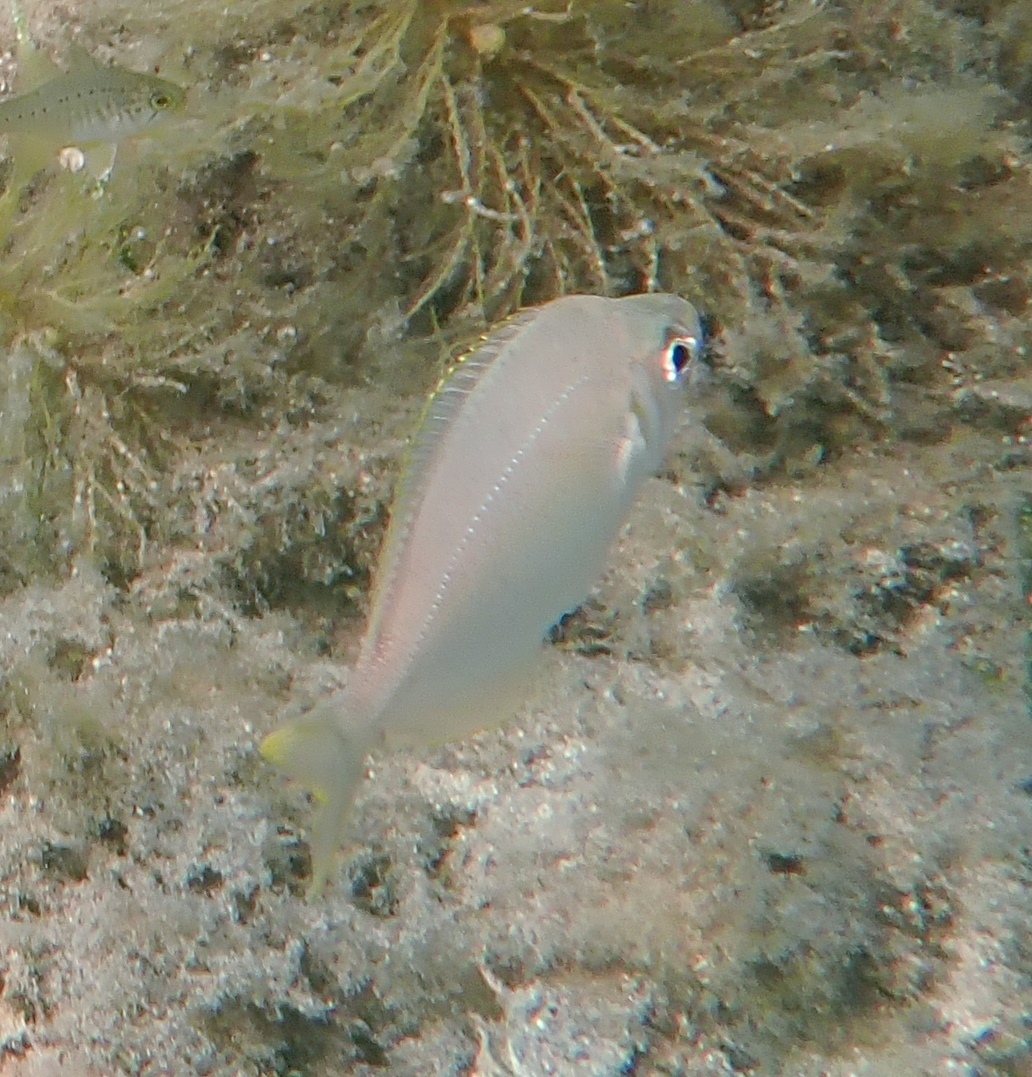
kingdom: Animalia
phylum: Chordata
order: Perciformes
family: Gerreidae
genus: Parequula
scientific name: Parequula melbournensis
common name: Silverbelly
